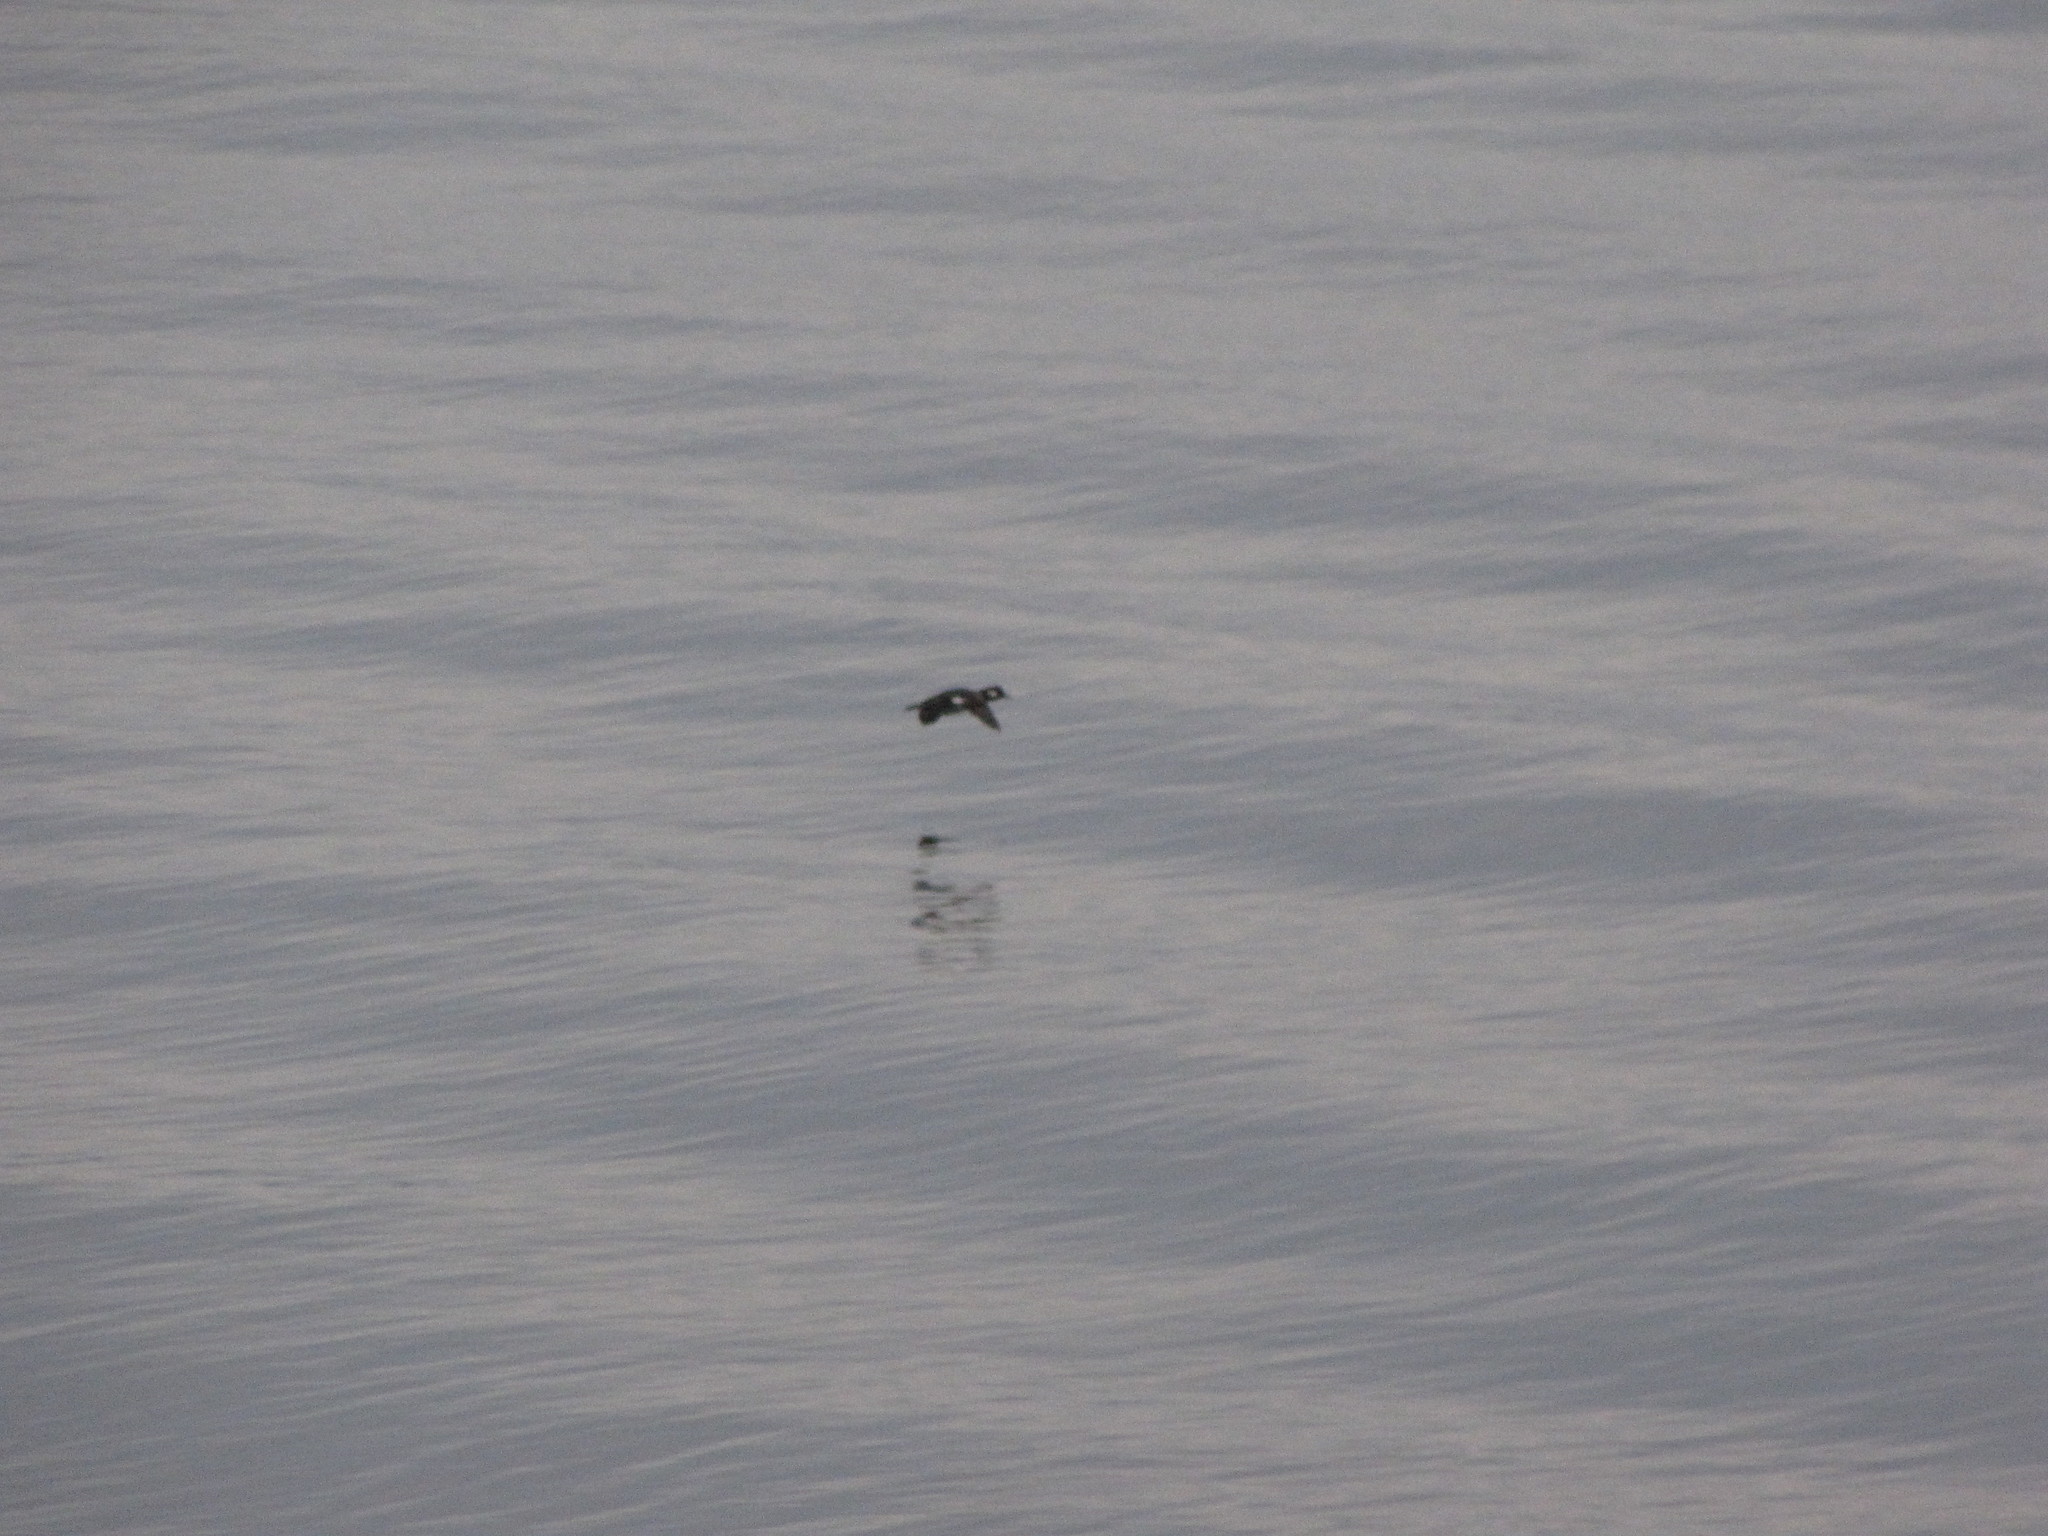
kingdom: Animalia
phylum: Chordata
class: Aves
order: Anseriformes
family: Anatidae
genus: Bucephala
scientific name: Bucephala albeola
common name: Bufflehead
